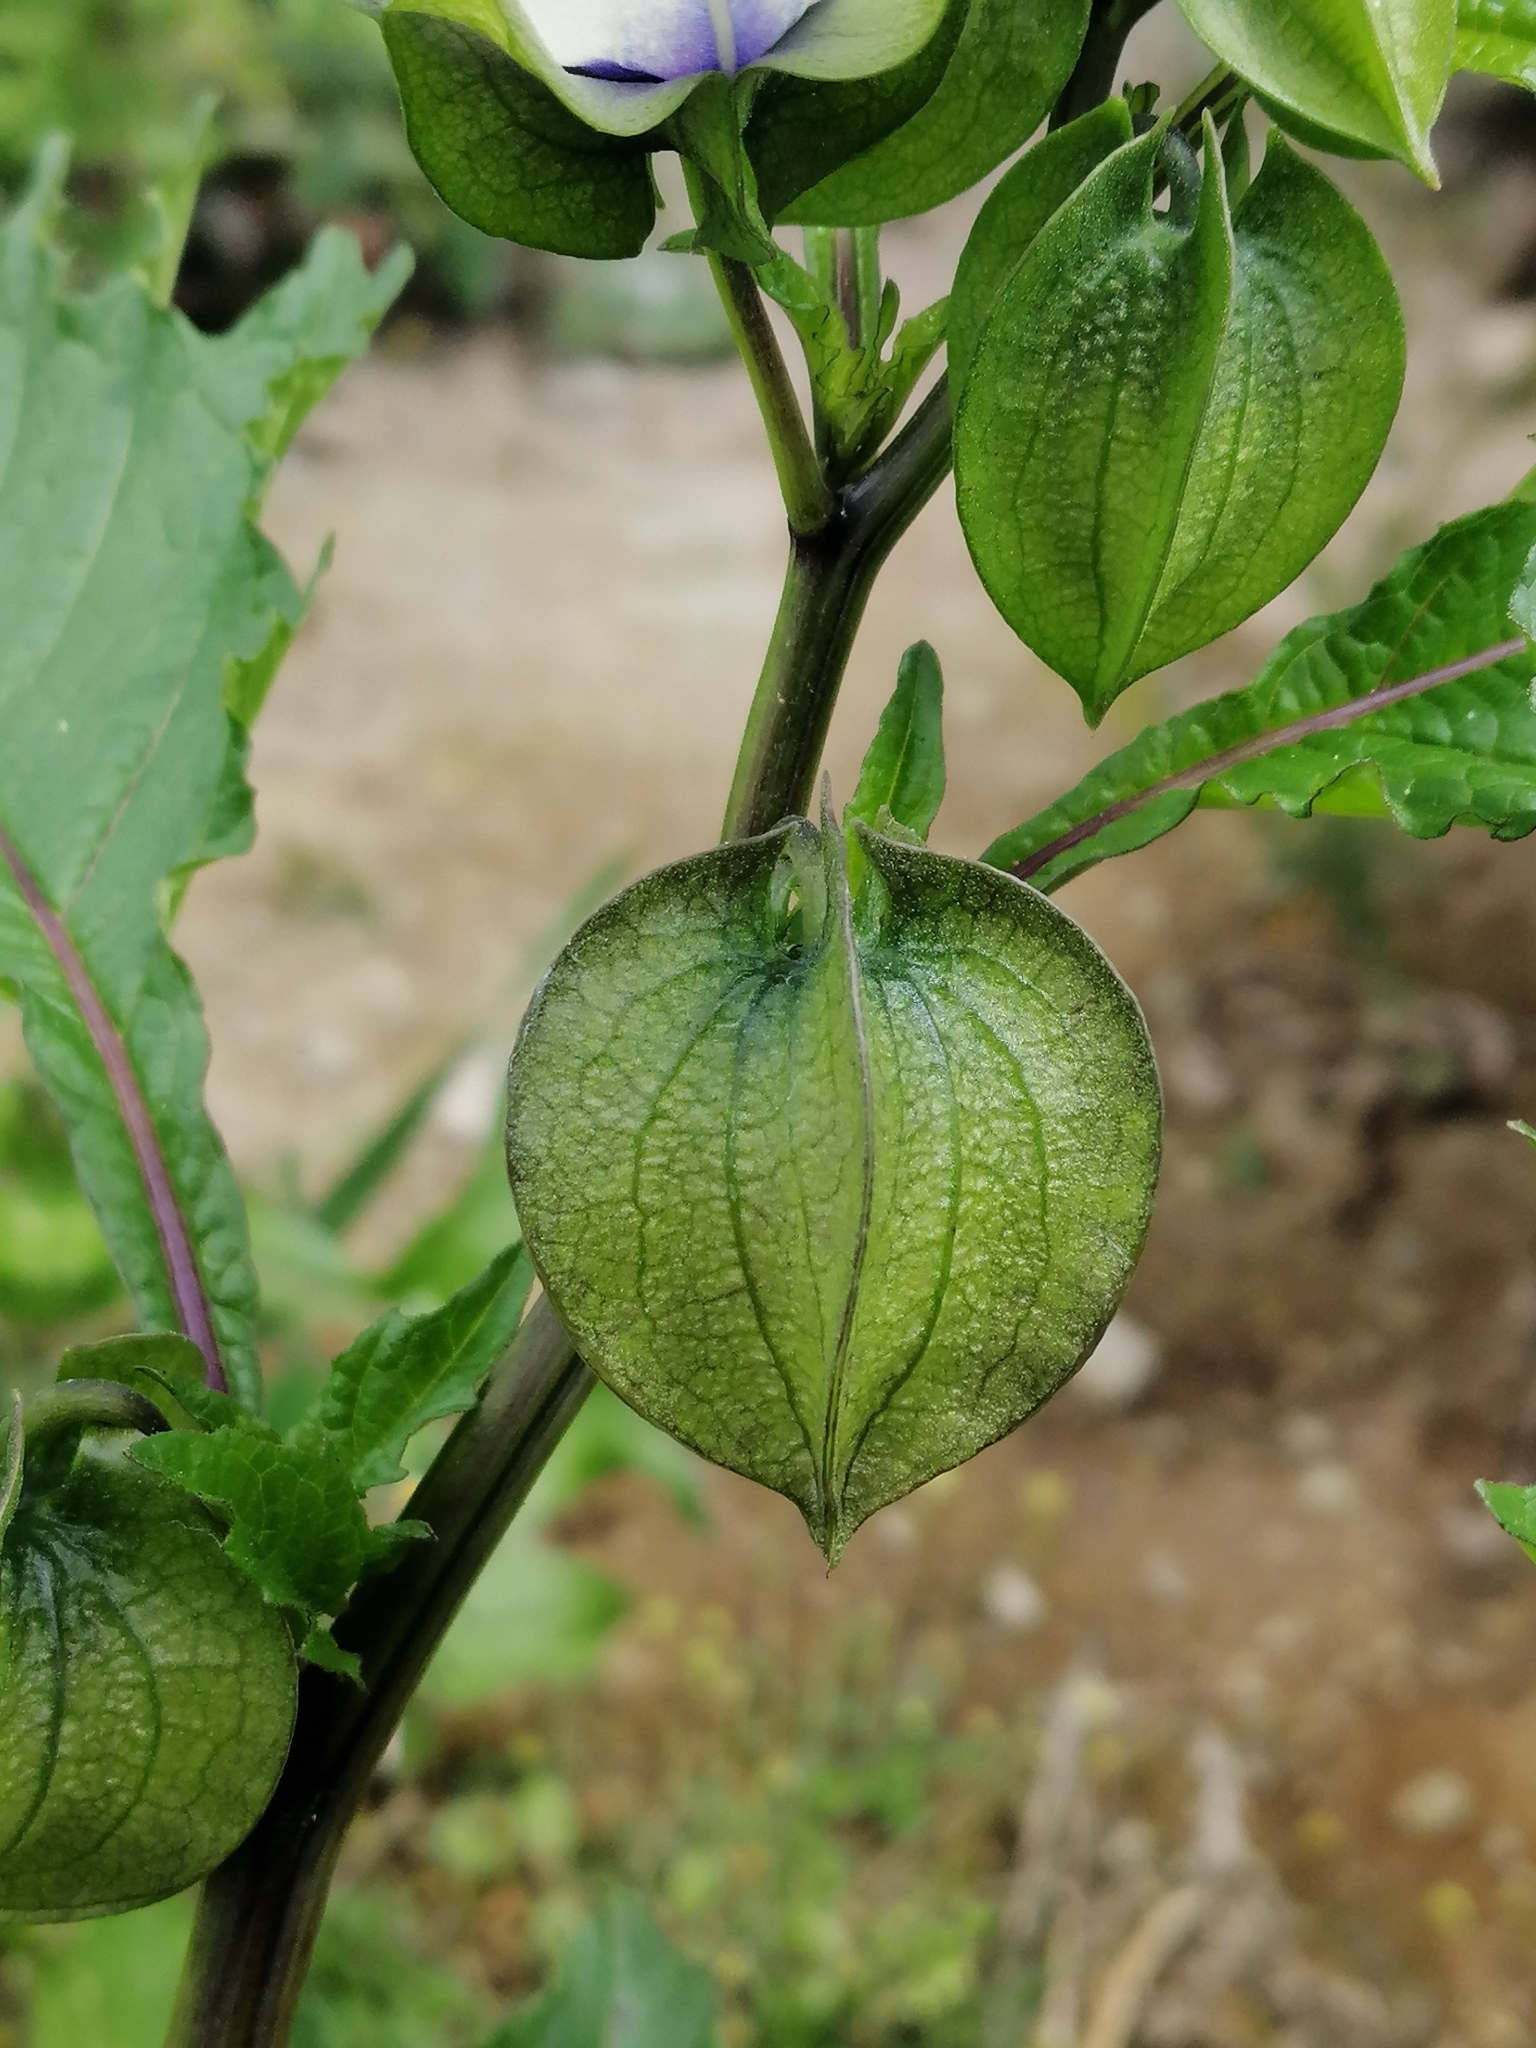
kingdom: Plantae
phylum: Tracheophyta
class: Magnoliopsida
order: Solanales
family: Solanaceae
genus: Nicandra
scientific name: Nicandra physalodes
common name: Apple-of-peru
